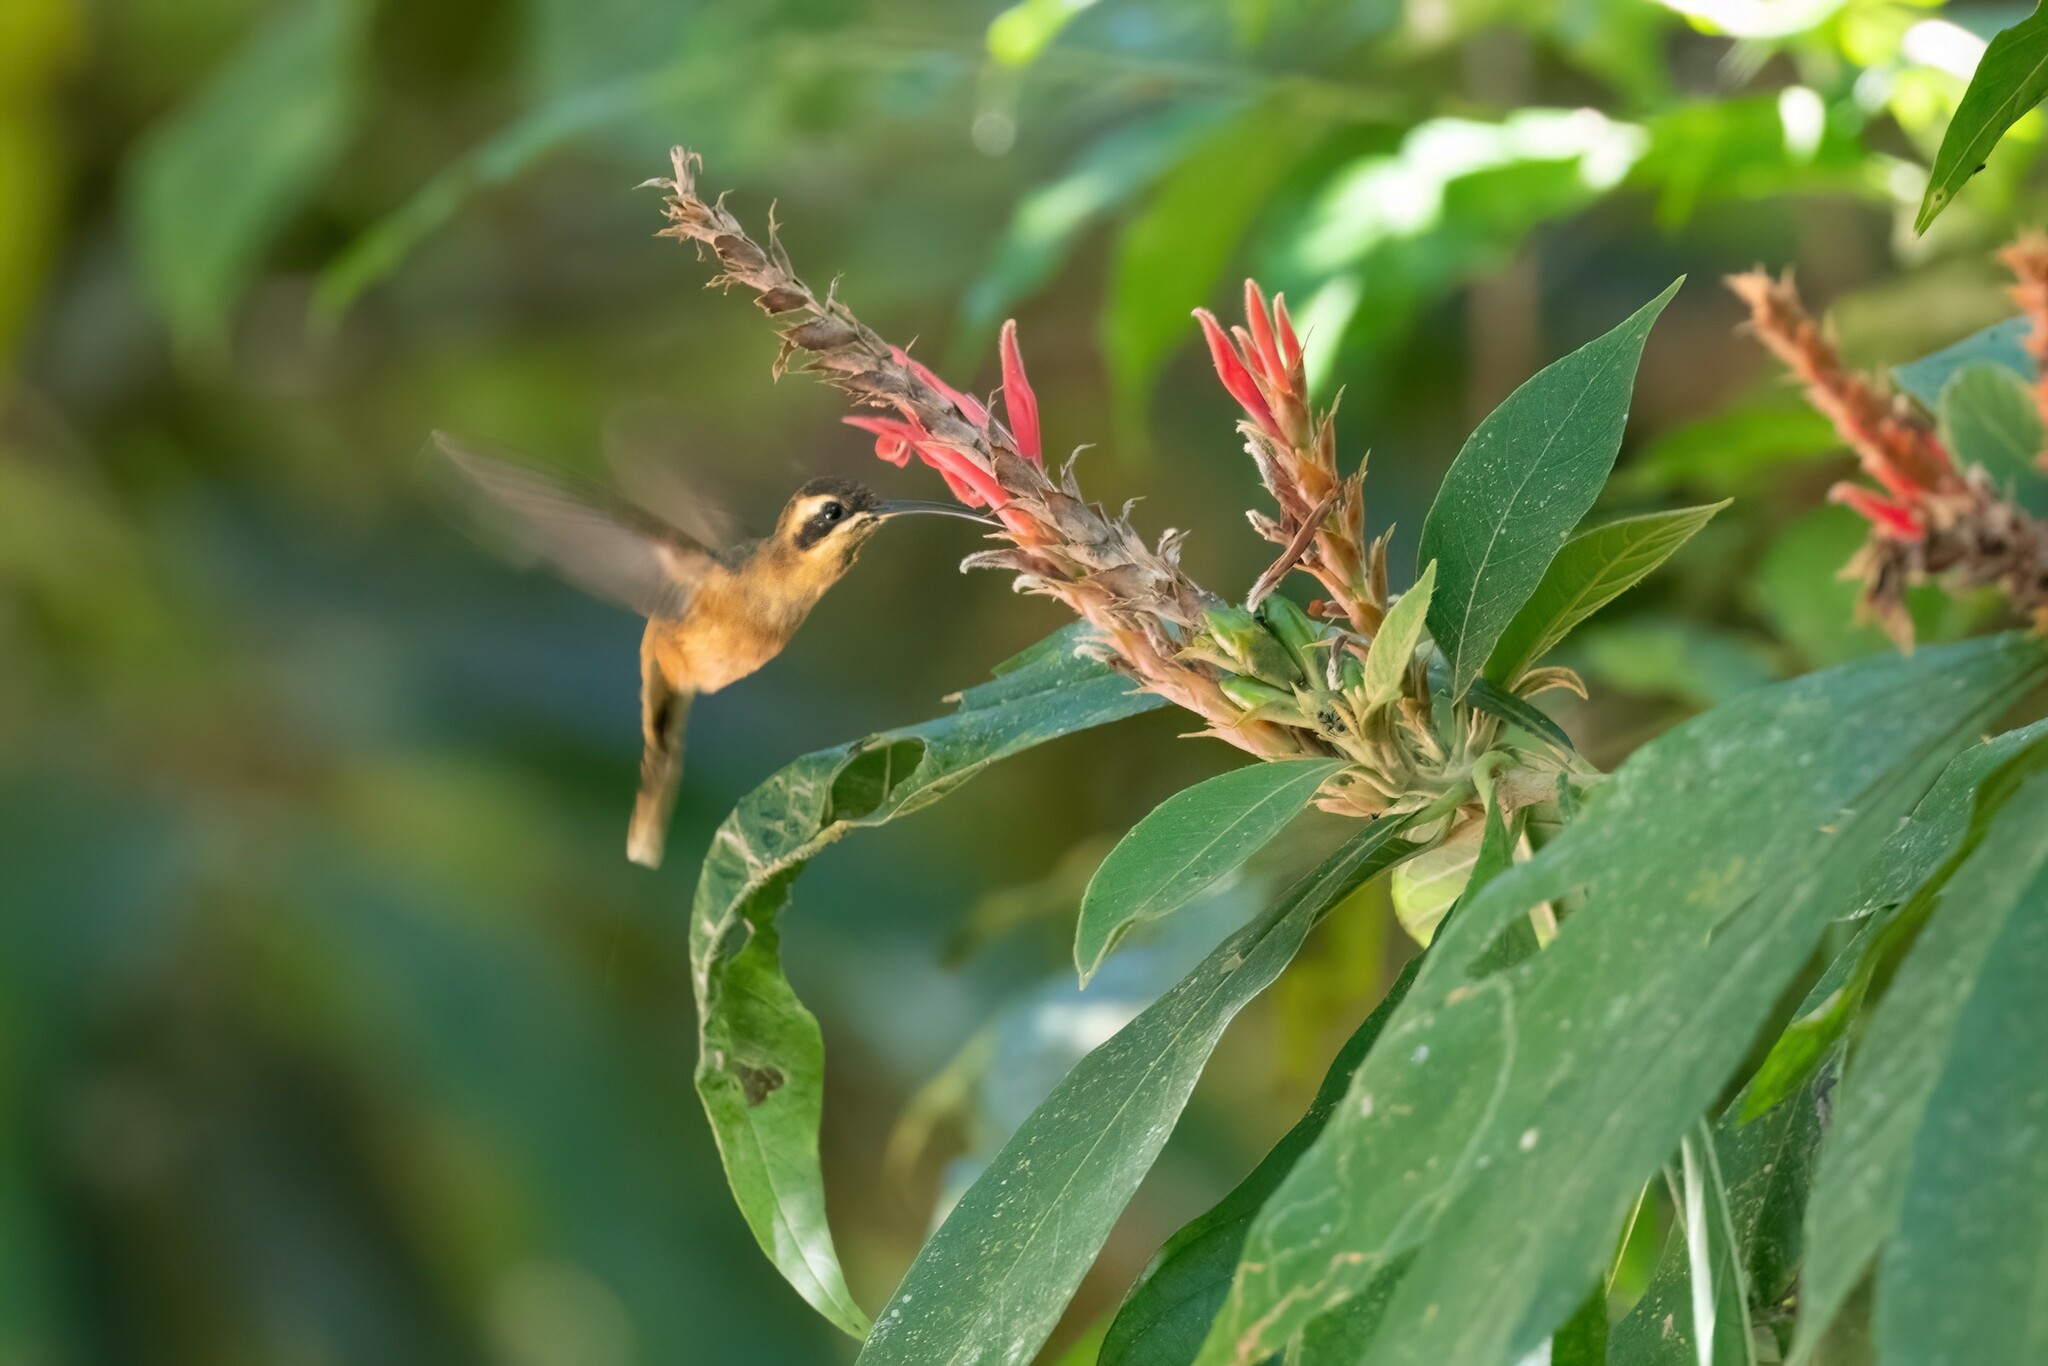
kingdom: Animalia
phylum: Chordata
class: Aves
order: Apodiformes
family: Trochilidae
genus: Phaethornis
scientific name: Phaethornis striigularis
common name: Stripe-throated hermit
